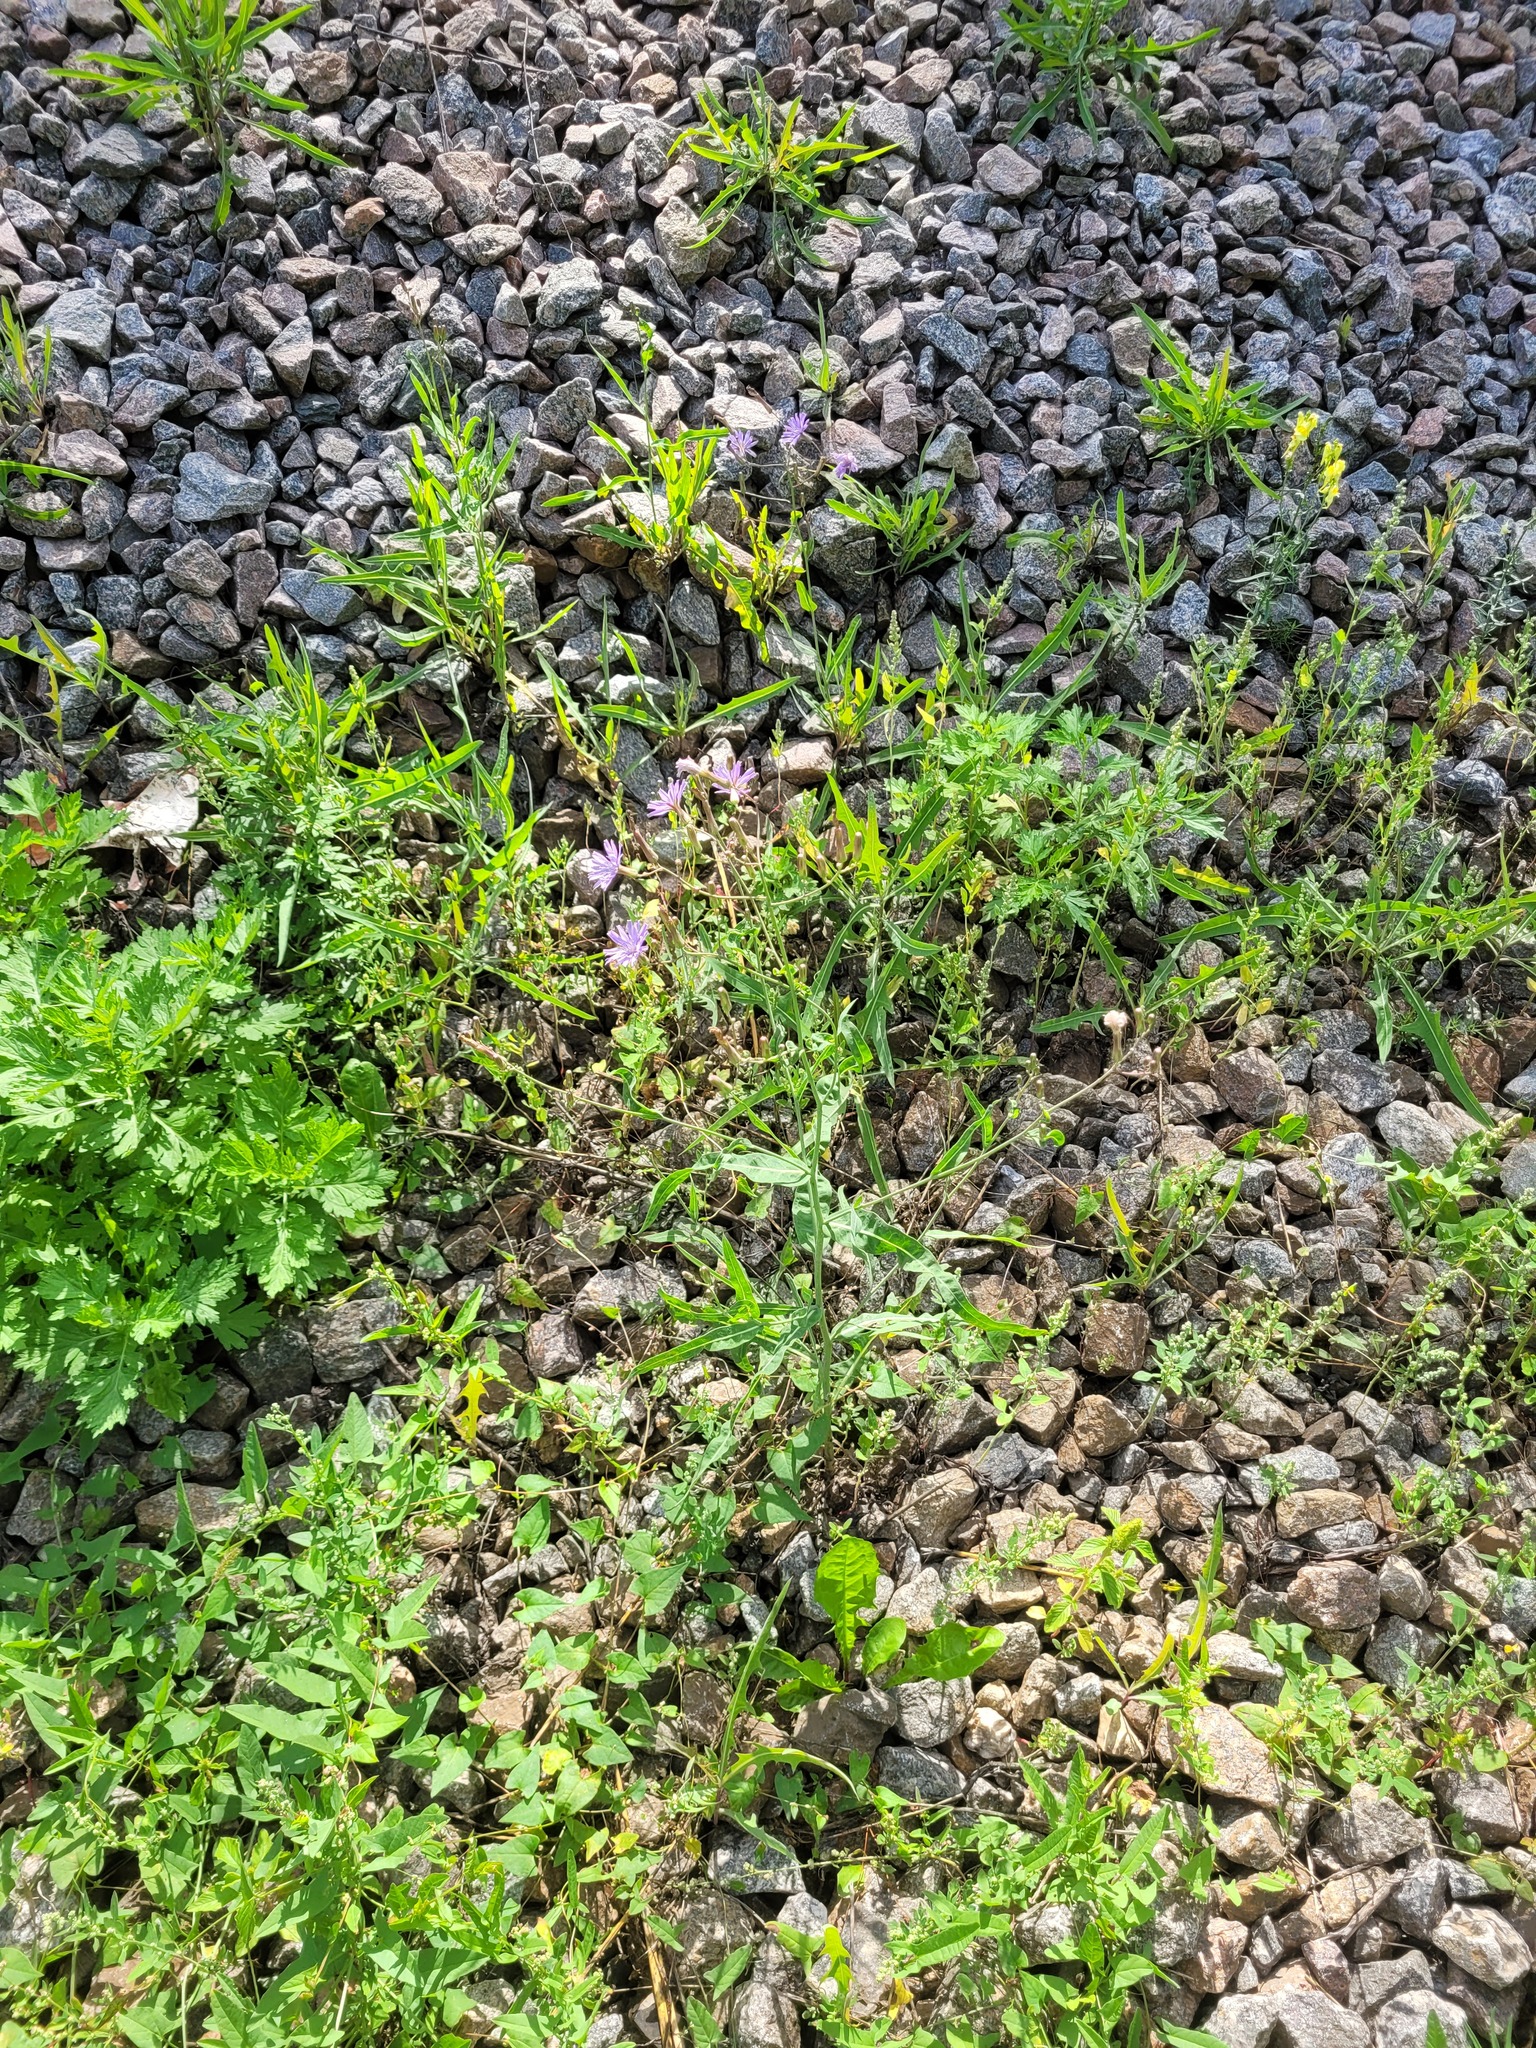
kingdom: Plantae
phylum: Tracheophyta
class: Magnoliopsida
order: Asterales
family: Asteraceae
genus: Lactuca
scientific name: Lactuca tatarica
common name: Blue lettuce
